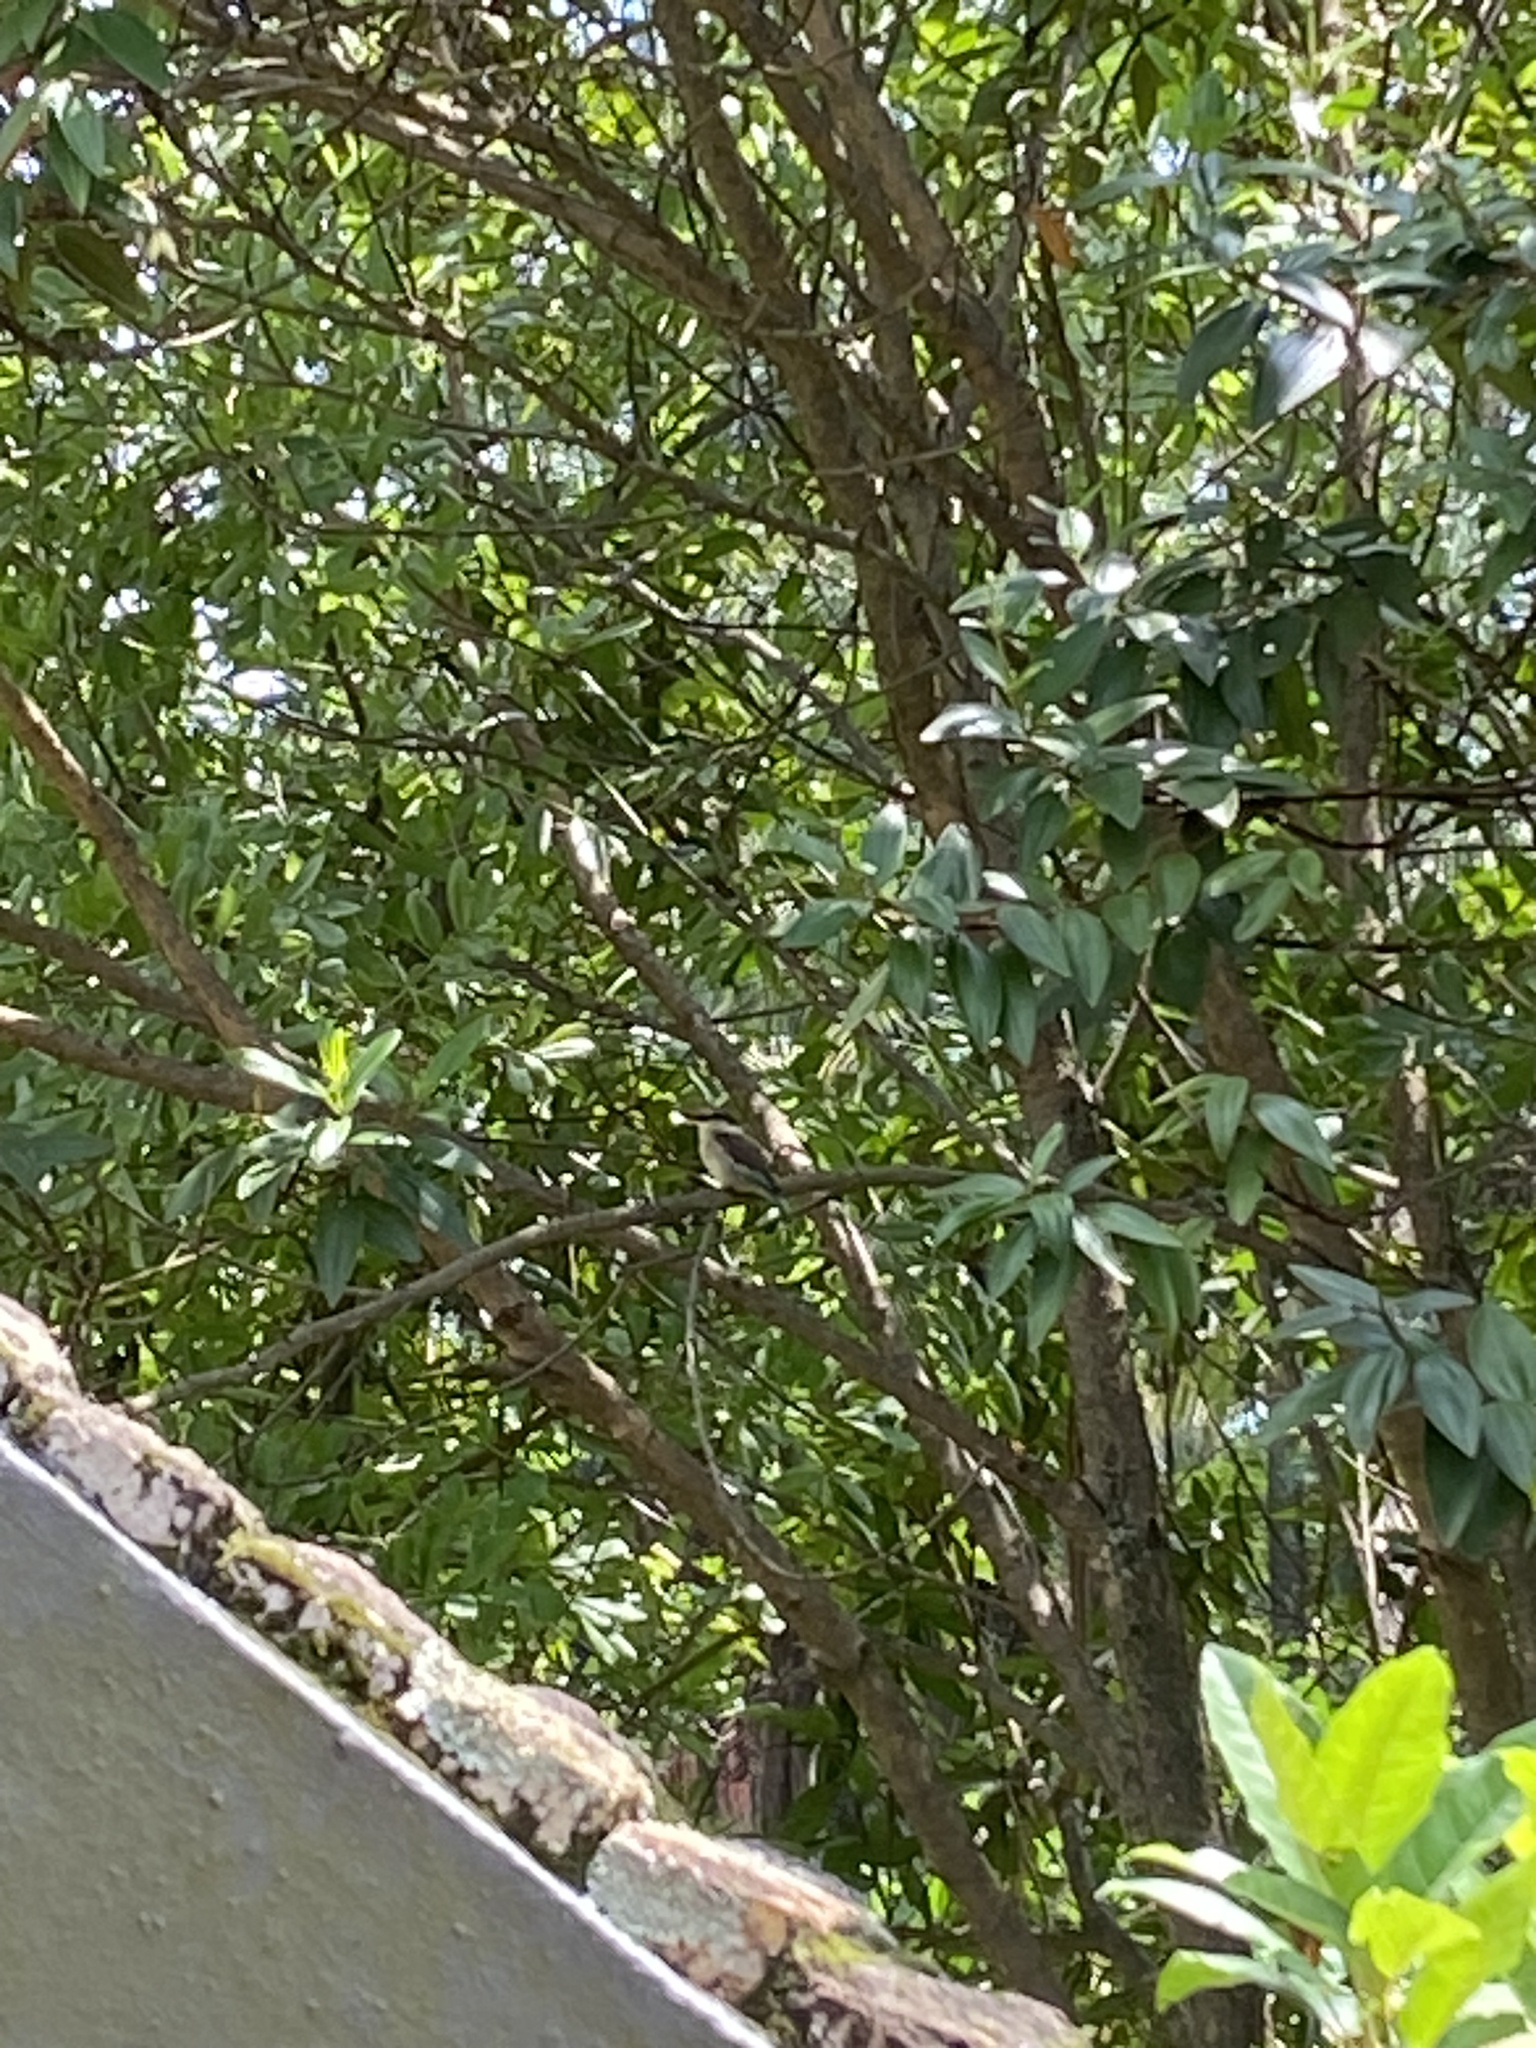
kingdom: Animalia
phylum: Chordata
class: Aves
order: Coraciiformes
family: Alcedinidae
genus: Halcyon
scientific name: Halcyon albiventris
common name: Brown-hooded kingfisher
